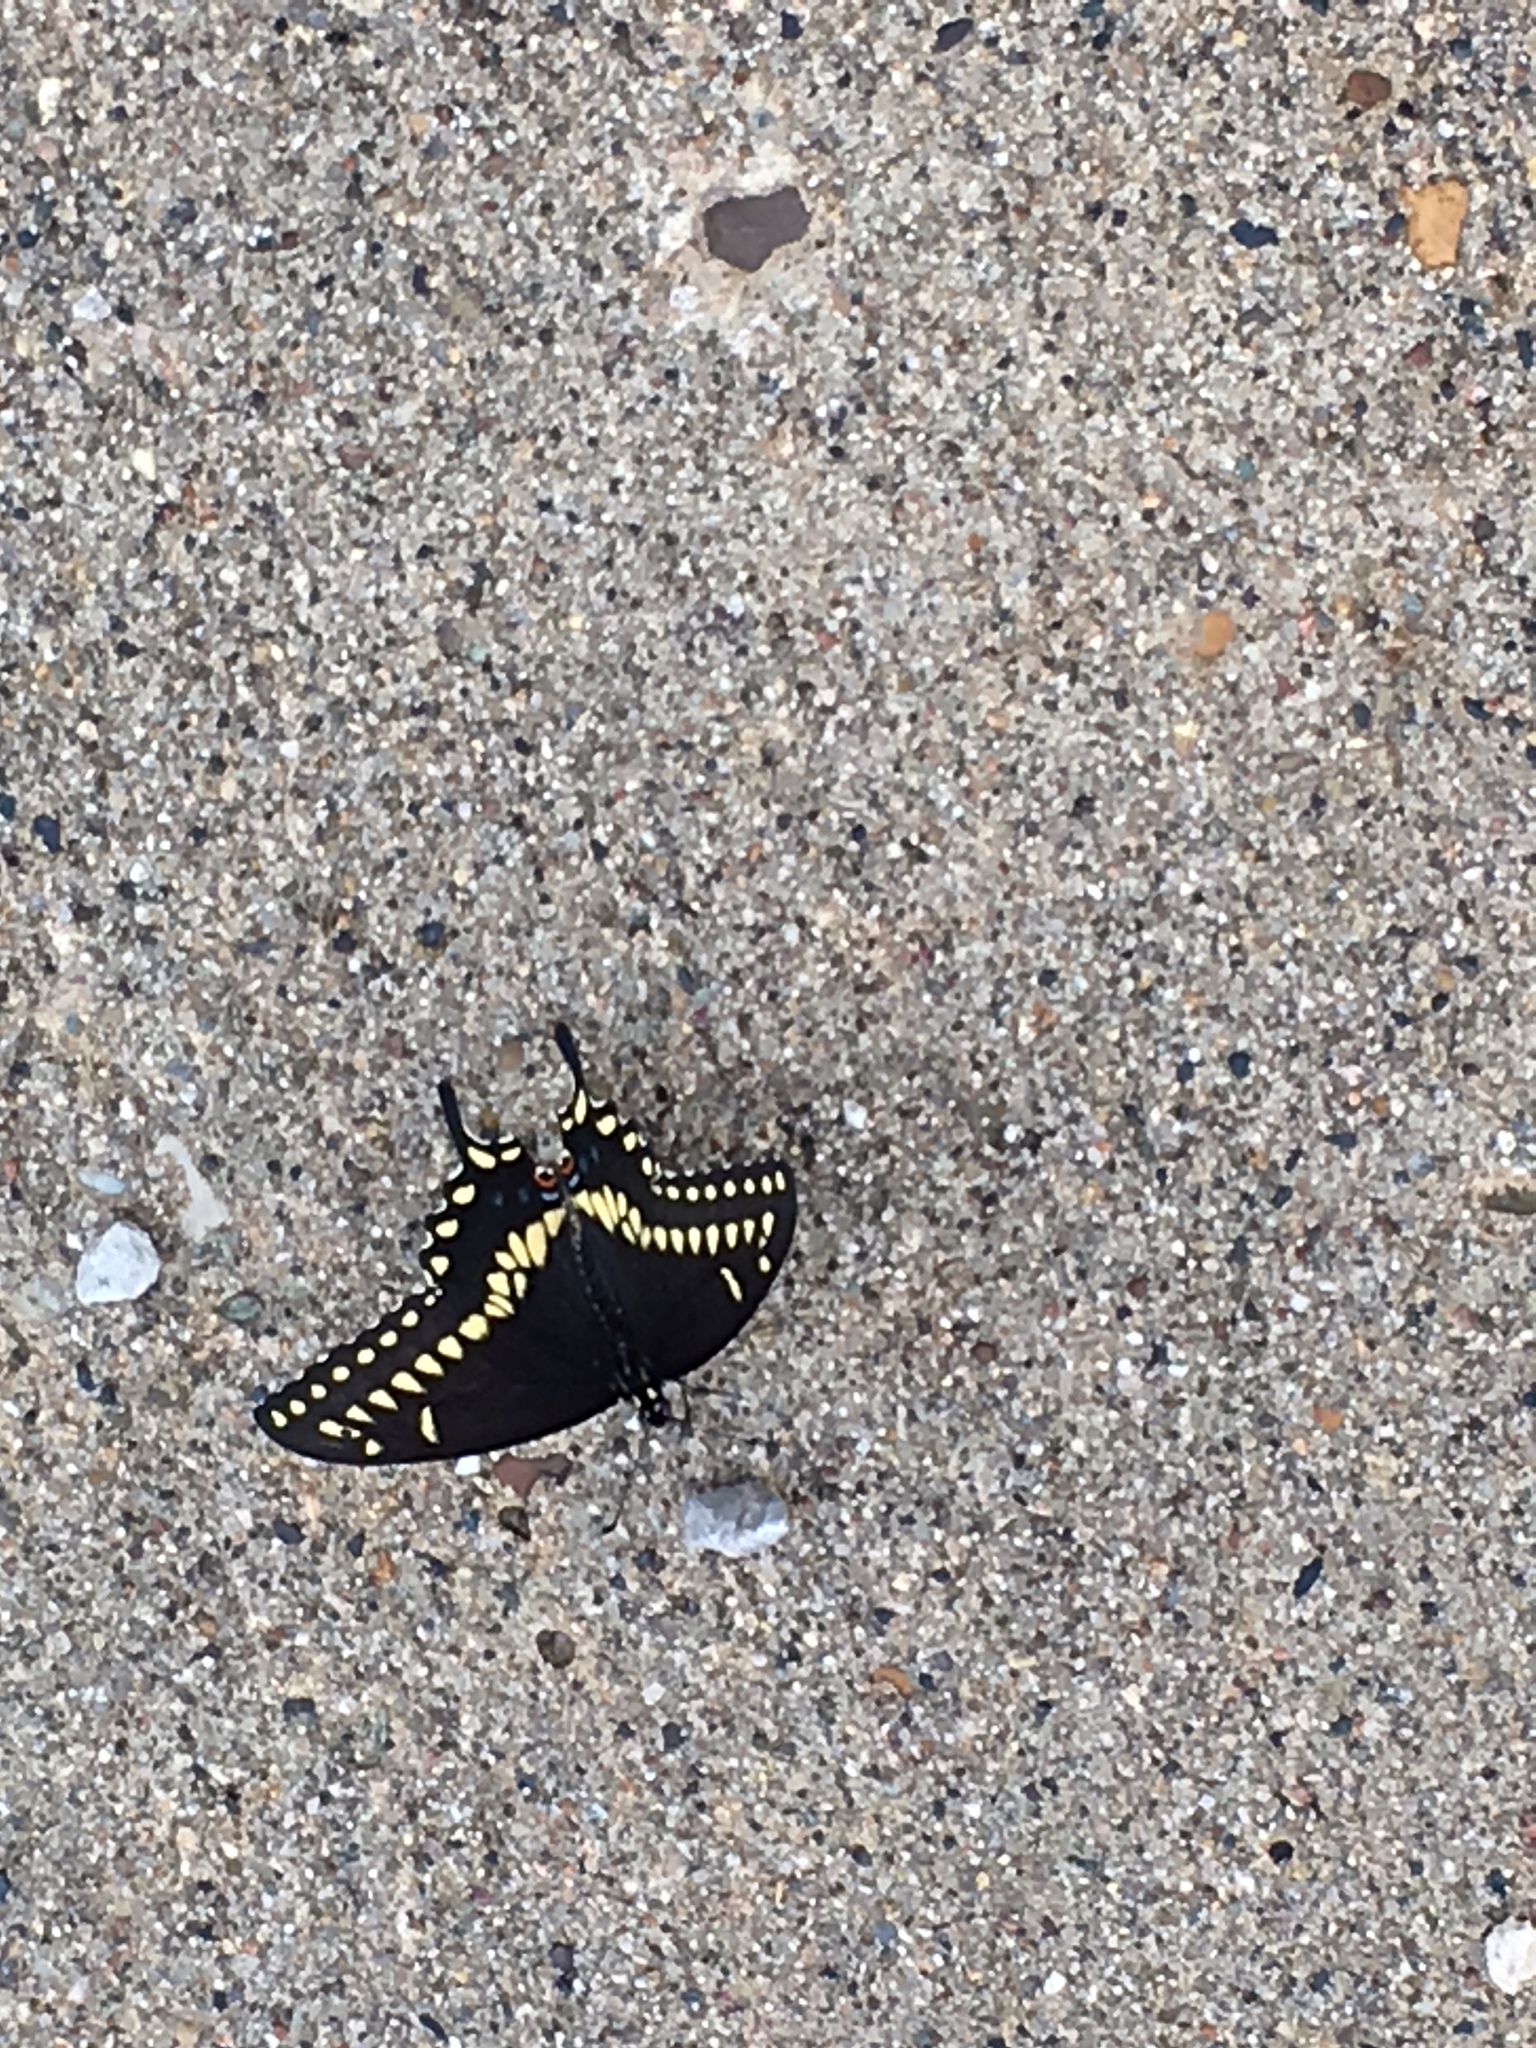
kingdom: Animalia
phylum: Arthropoda
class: Insecta
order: Lepidoptera
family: Papilionidae
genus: Papilio
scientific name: Papilio polyxenes
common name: Black swallowtail
